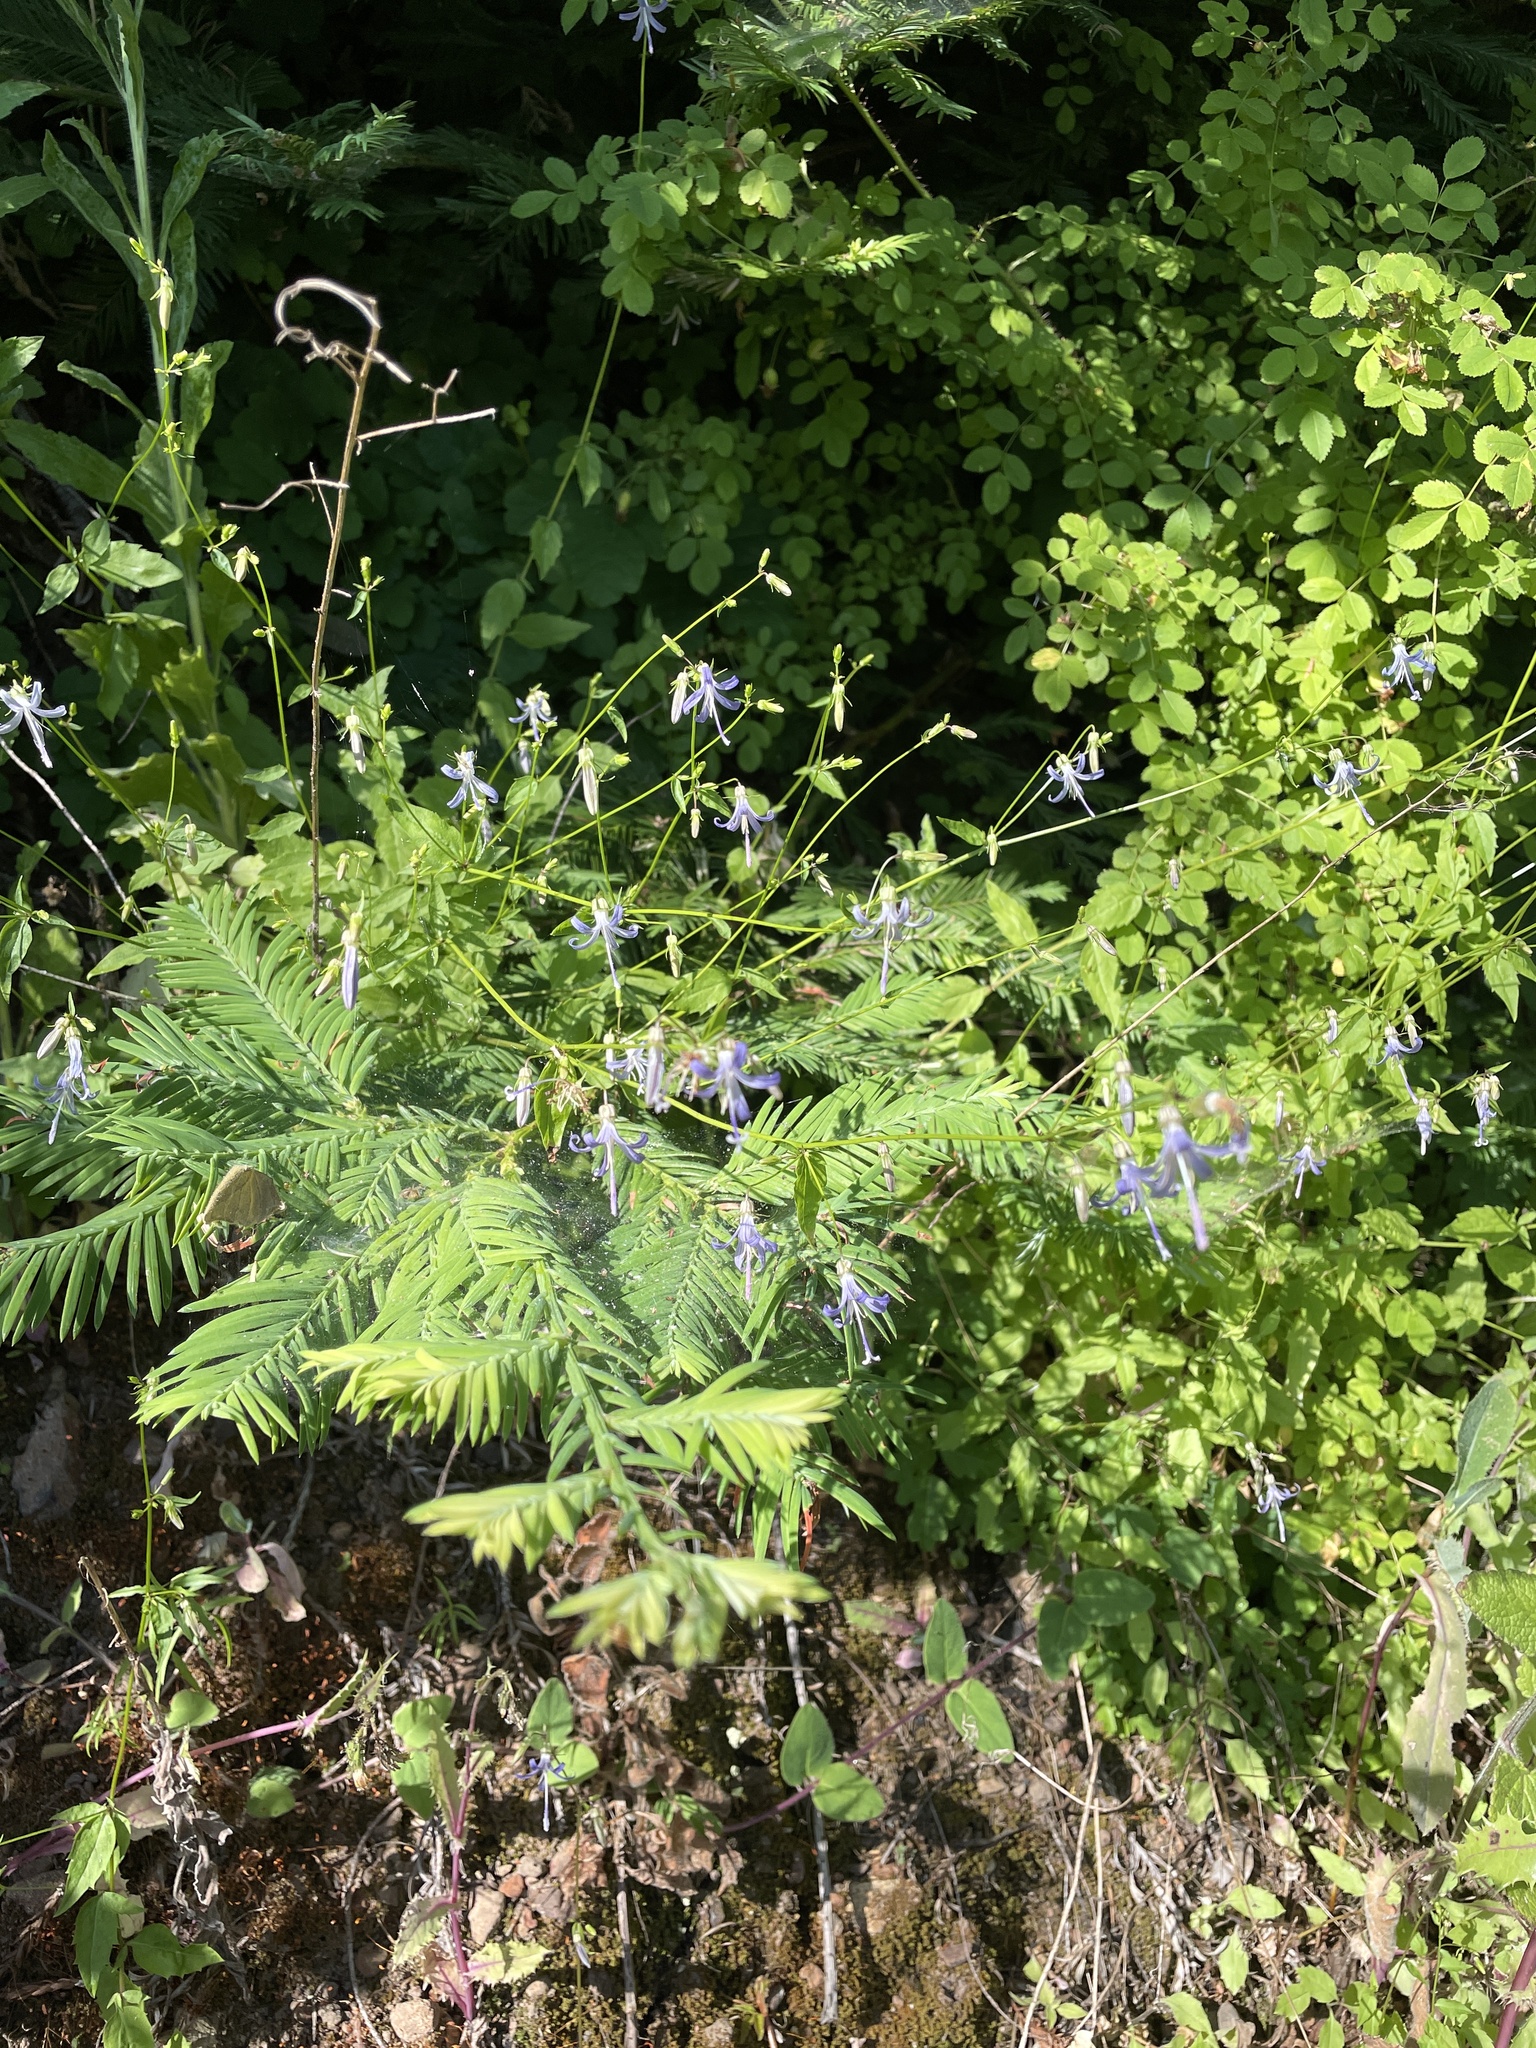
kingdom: Plantae
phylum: Tracheophyta
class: Magnoliopsida
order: Asterales
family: Campanulaceae
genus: Smithiastrum
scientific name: Smithiastrum prenanthoides
